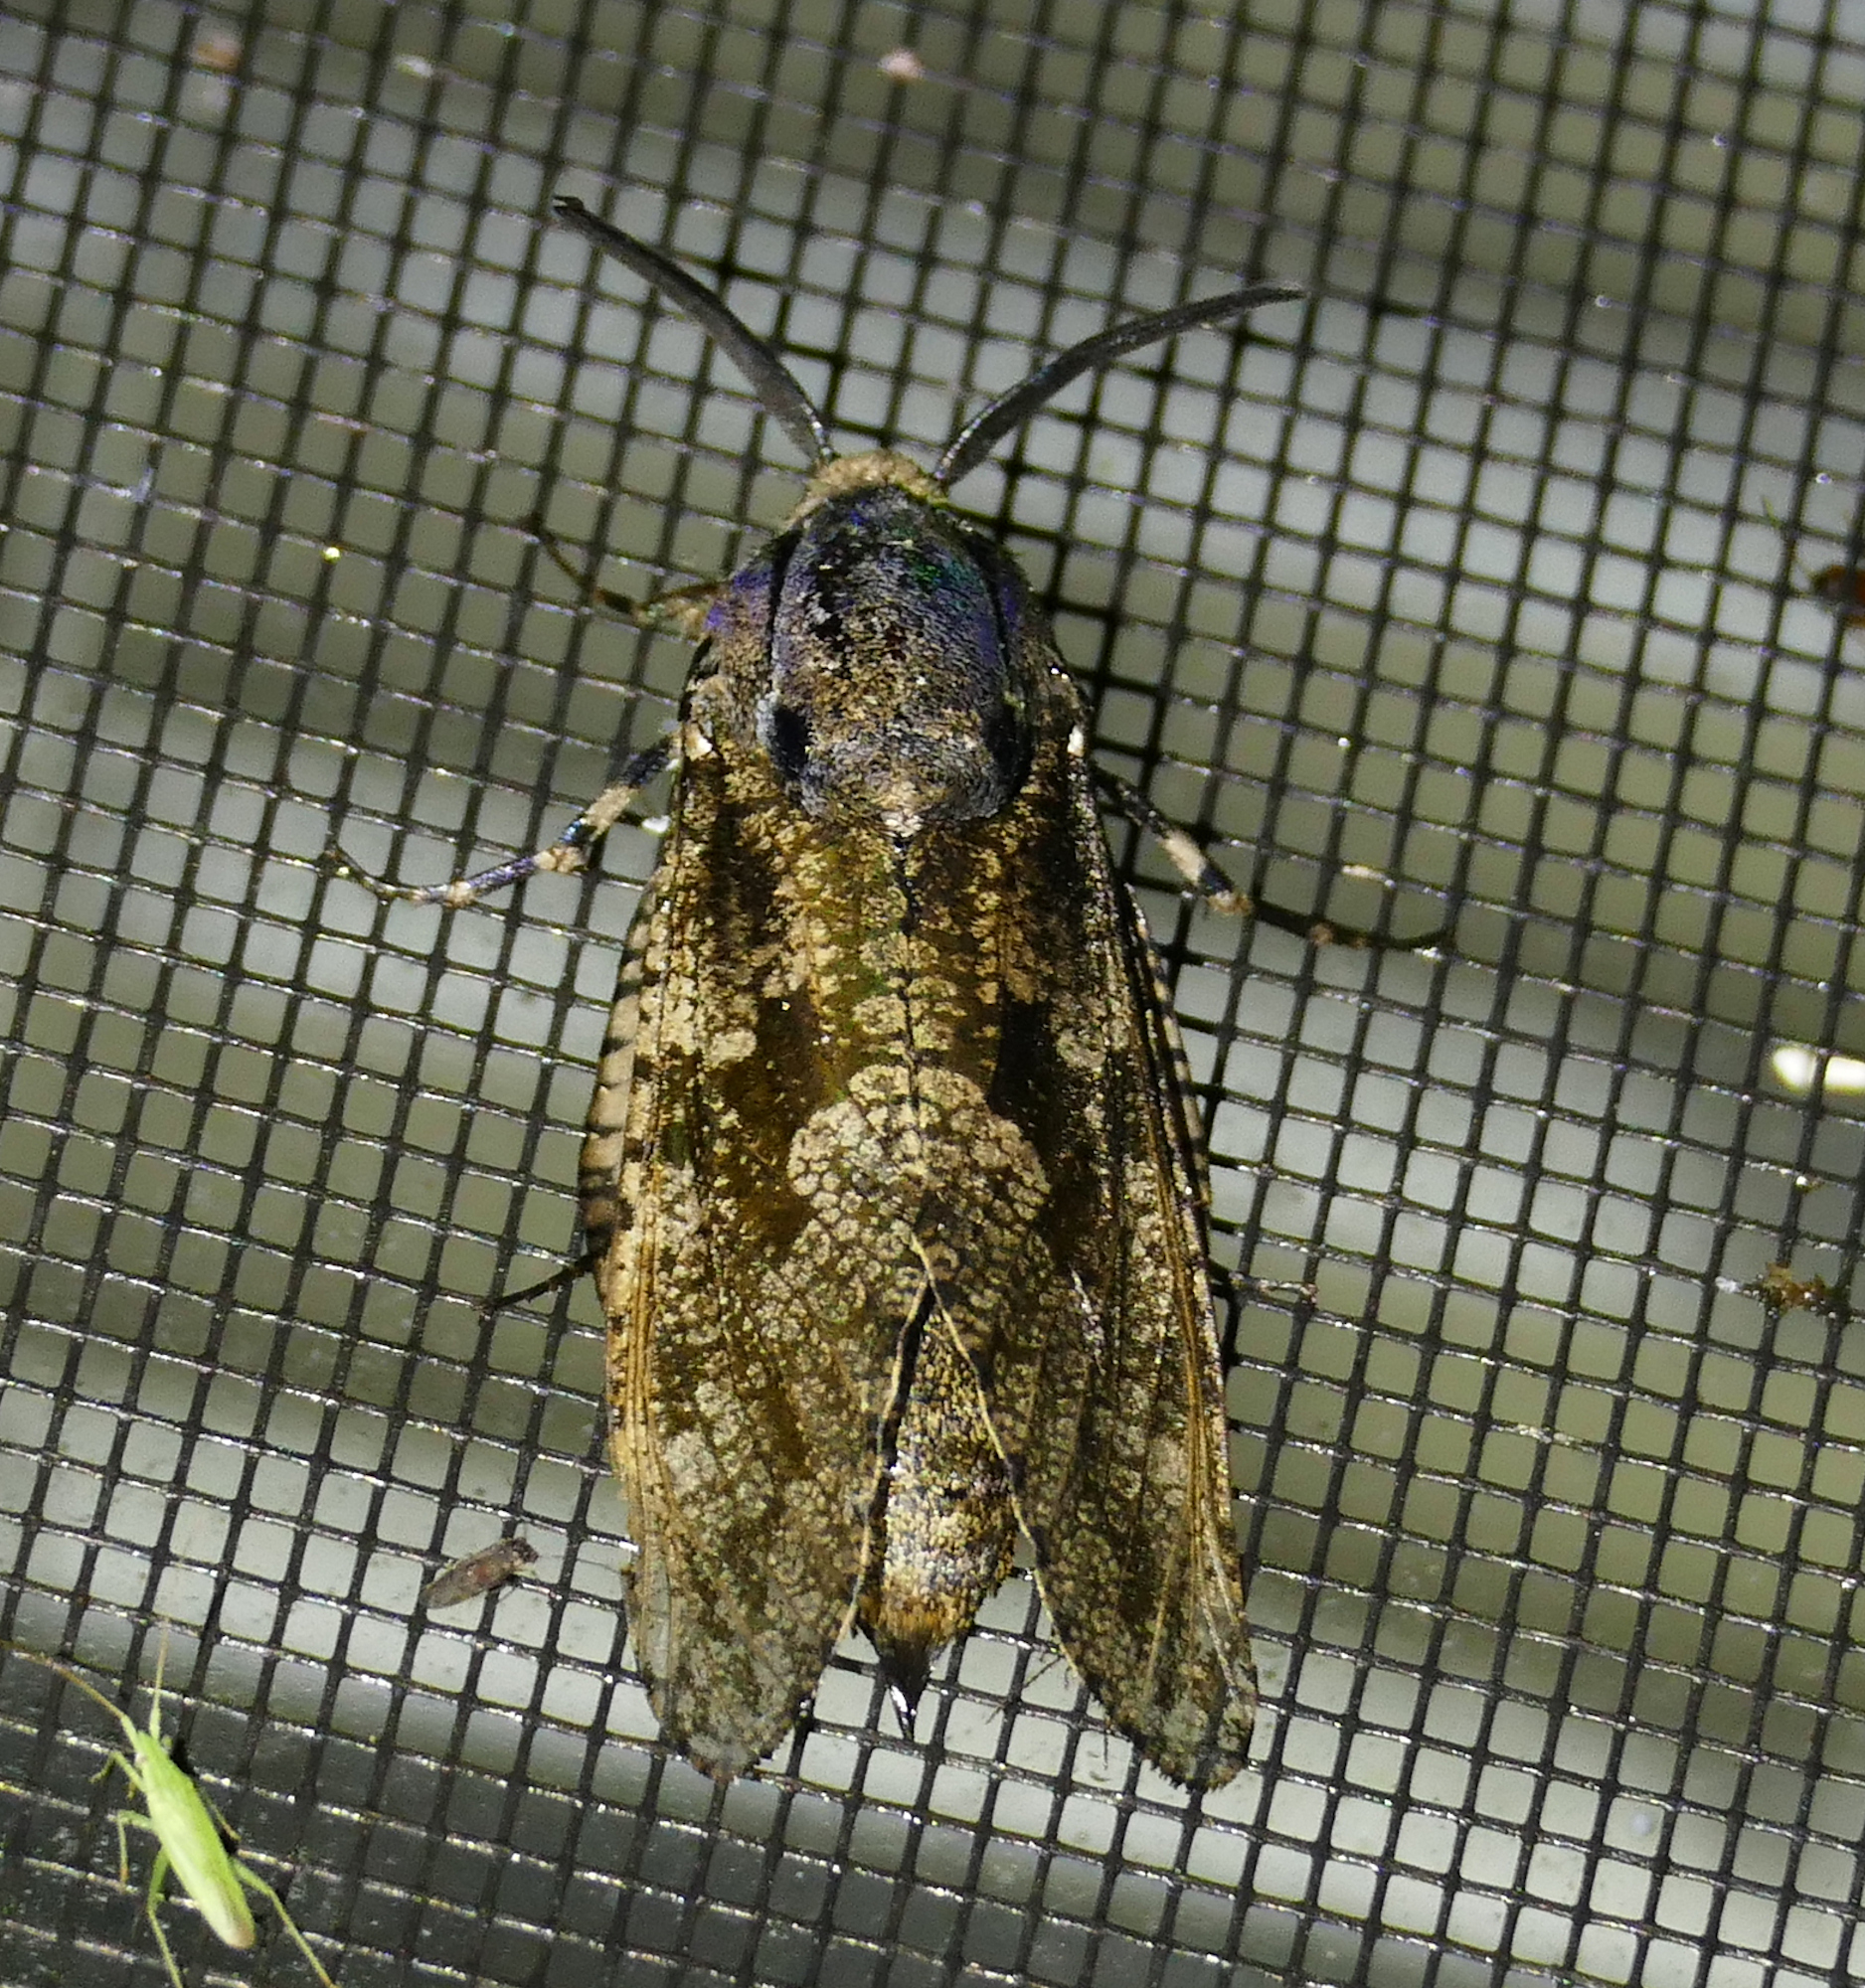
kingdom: Animalia
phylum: Arthropoda
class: Insecta
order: Lepidoptera
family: Cossidae
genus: Prionoxystus
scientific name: Prionoxystus robiniae
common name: Carpenterworm
